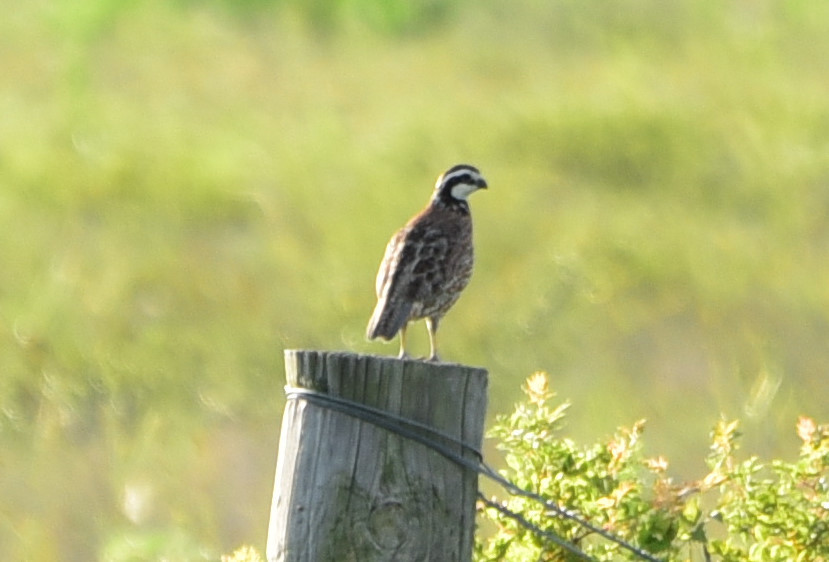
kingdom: Animalia
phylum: Chordata
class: Aves
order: Galliformes
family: Odontophoridae
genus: Colinus
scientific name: Colinus virginianus
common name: Northern bobwhite
